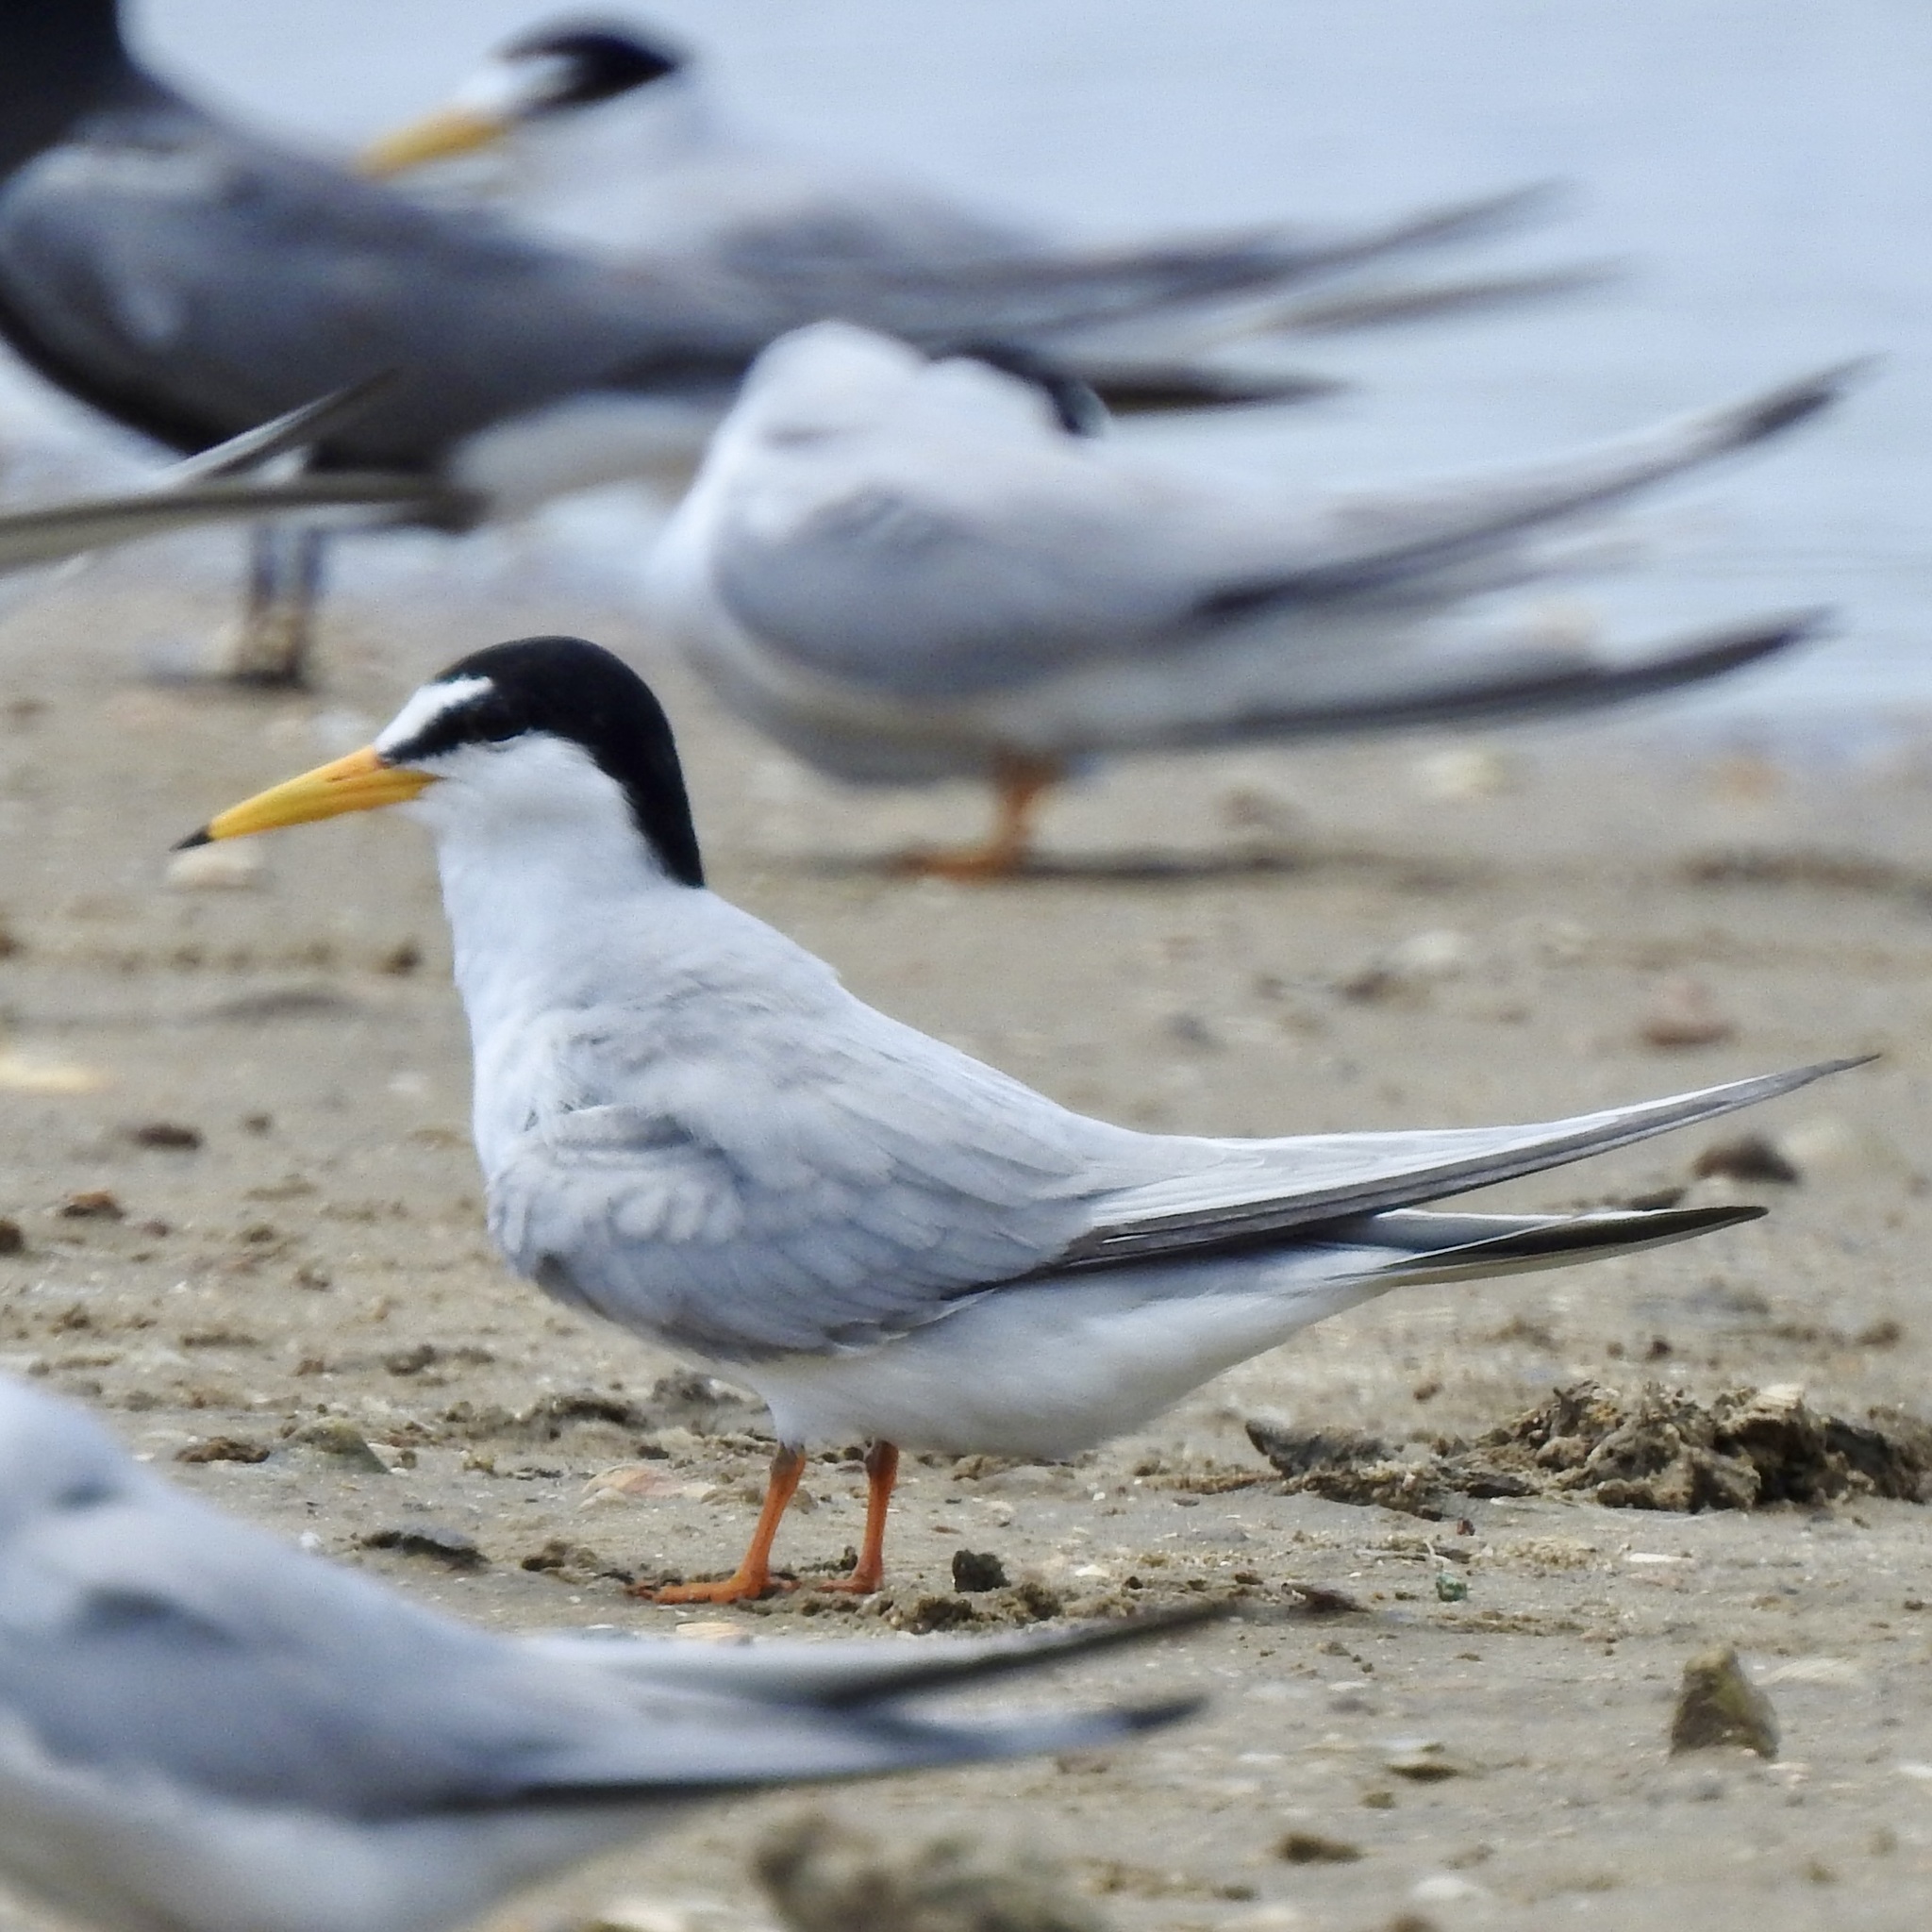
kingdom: Animalia
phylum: Chordata
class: Aves
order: Charadriiformes
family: Laridae
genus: Sternula
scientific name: Sternula antillarum
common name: Least tern
